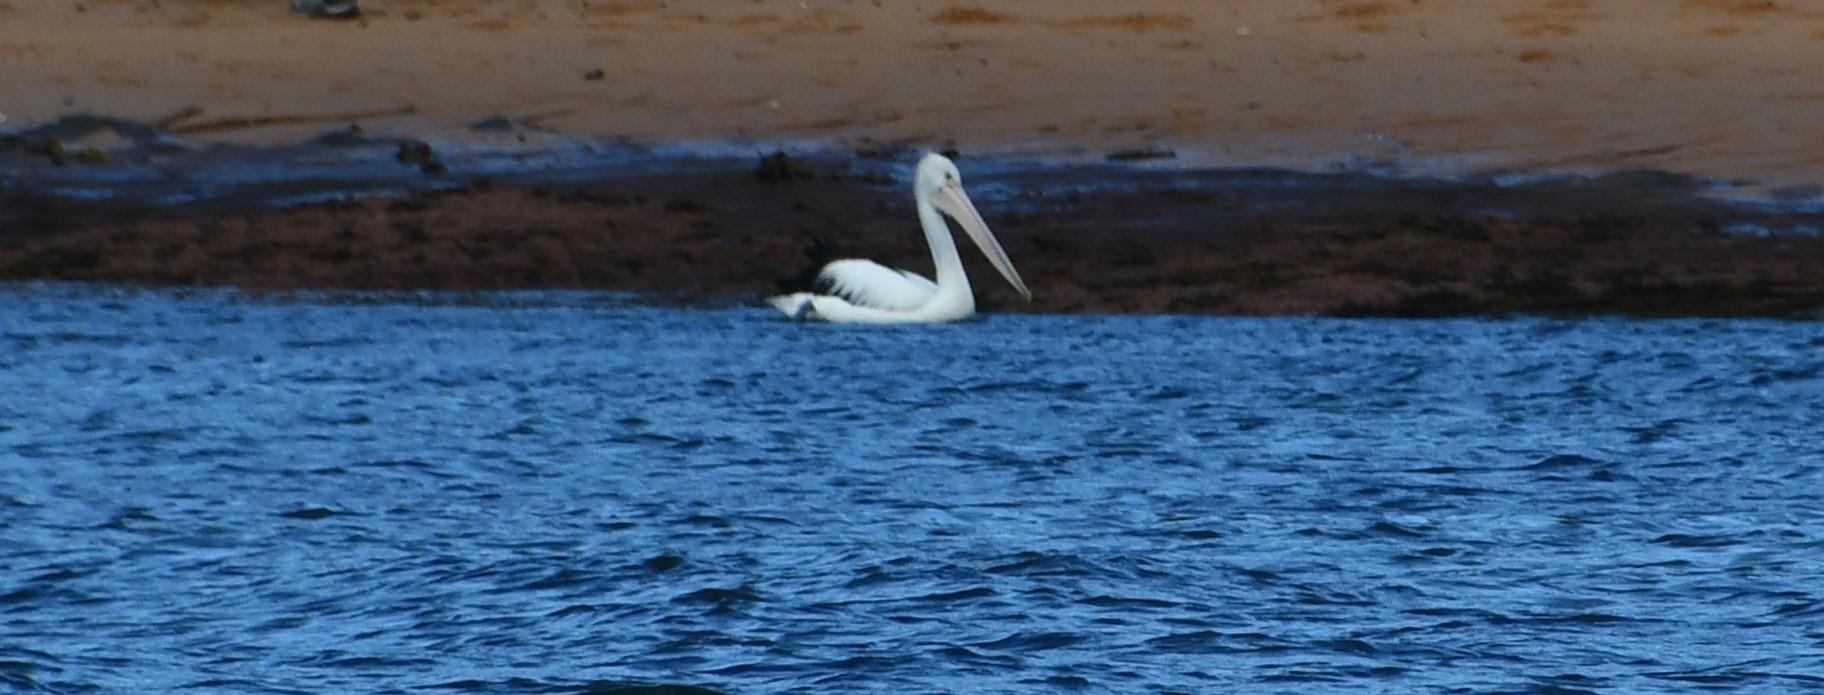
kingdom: Animalia
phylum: Chordata
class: Aves
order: Pelecaniformes
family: Pelecanidae
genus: Pelecanus
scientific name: Pelecanus conspicillatus
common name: Australian pelican
